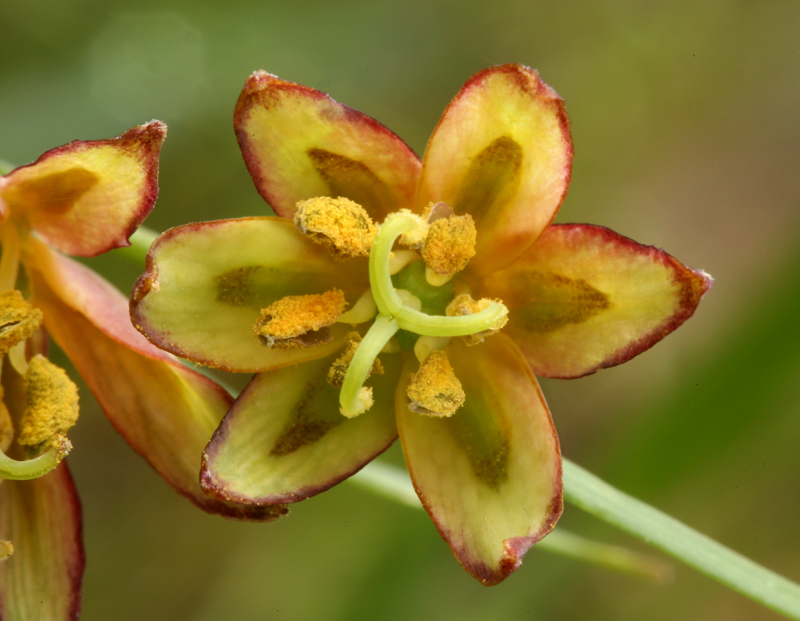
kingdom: Plantae
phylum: Tracheophyta
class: Liliopsida
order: Liliales
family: Liliaceae
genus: Fritillaria
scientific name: Fritillaria micrantha
